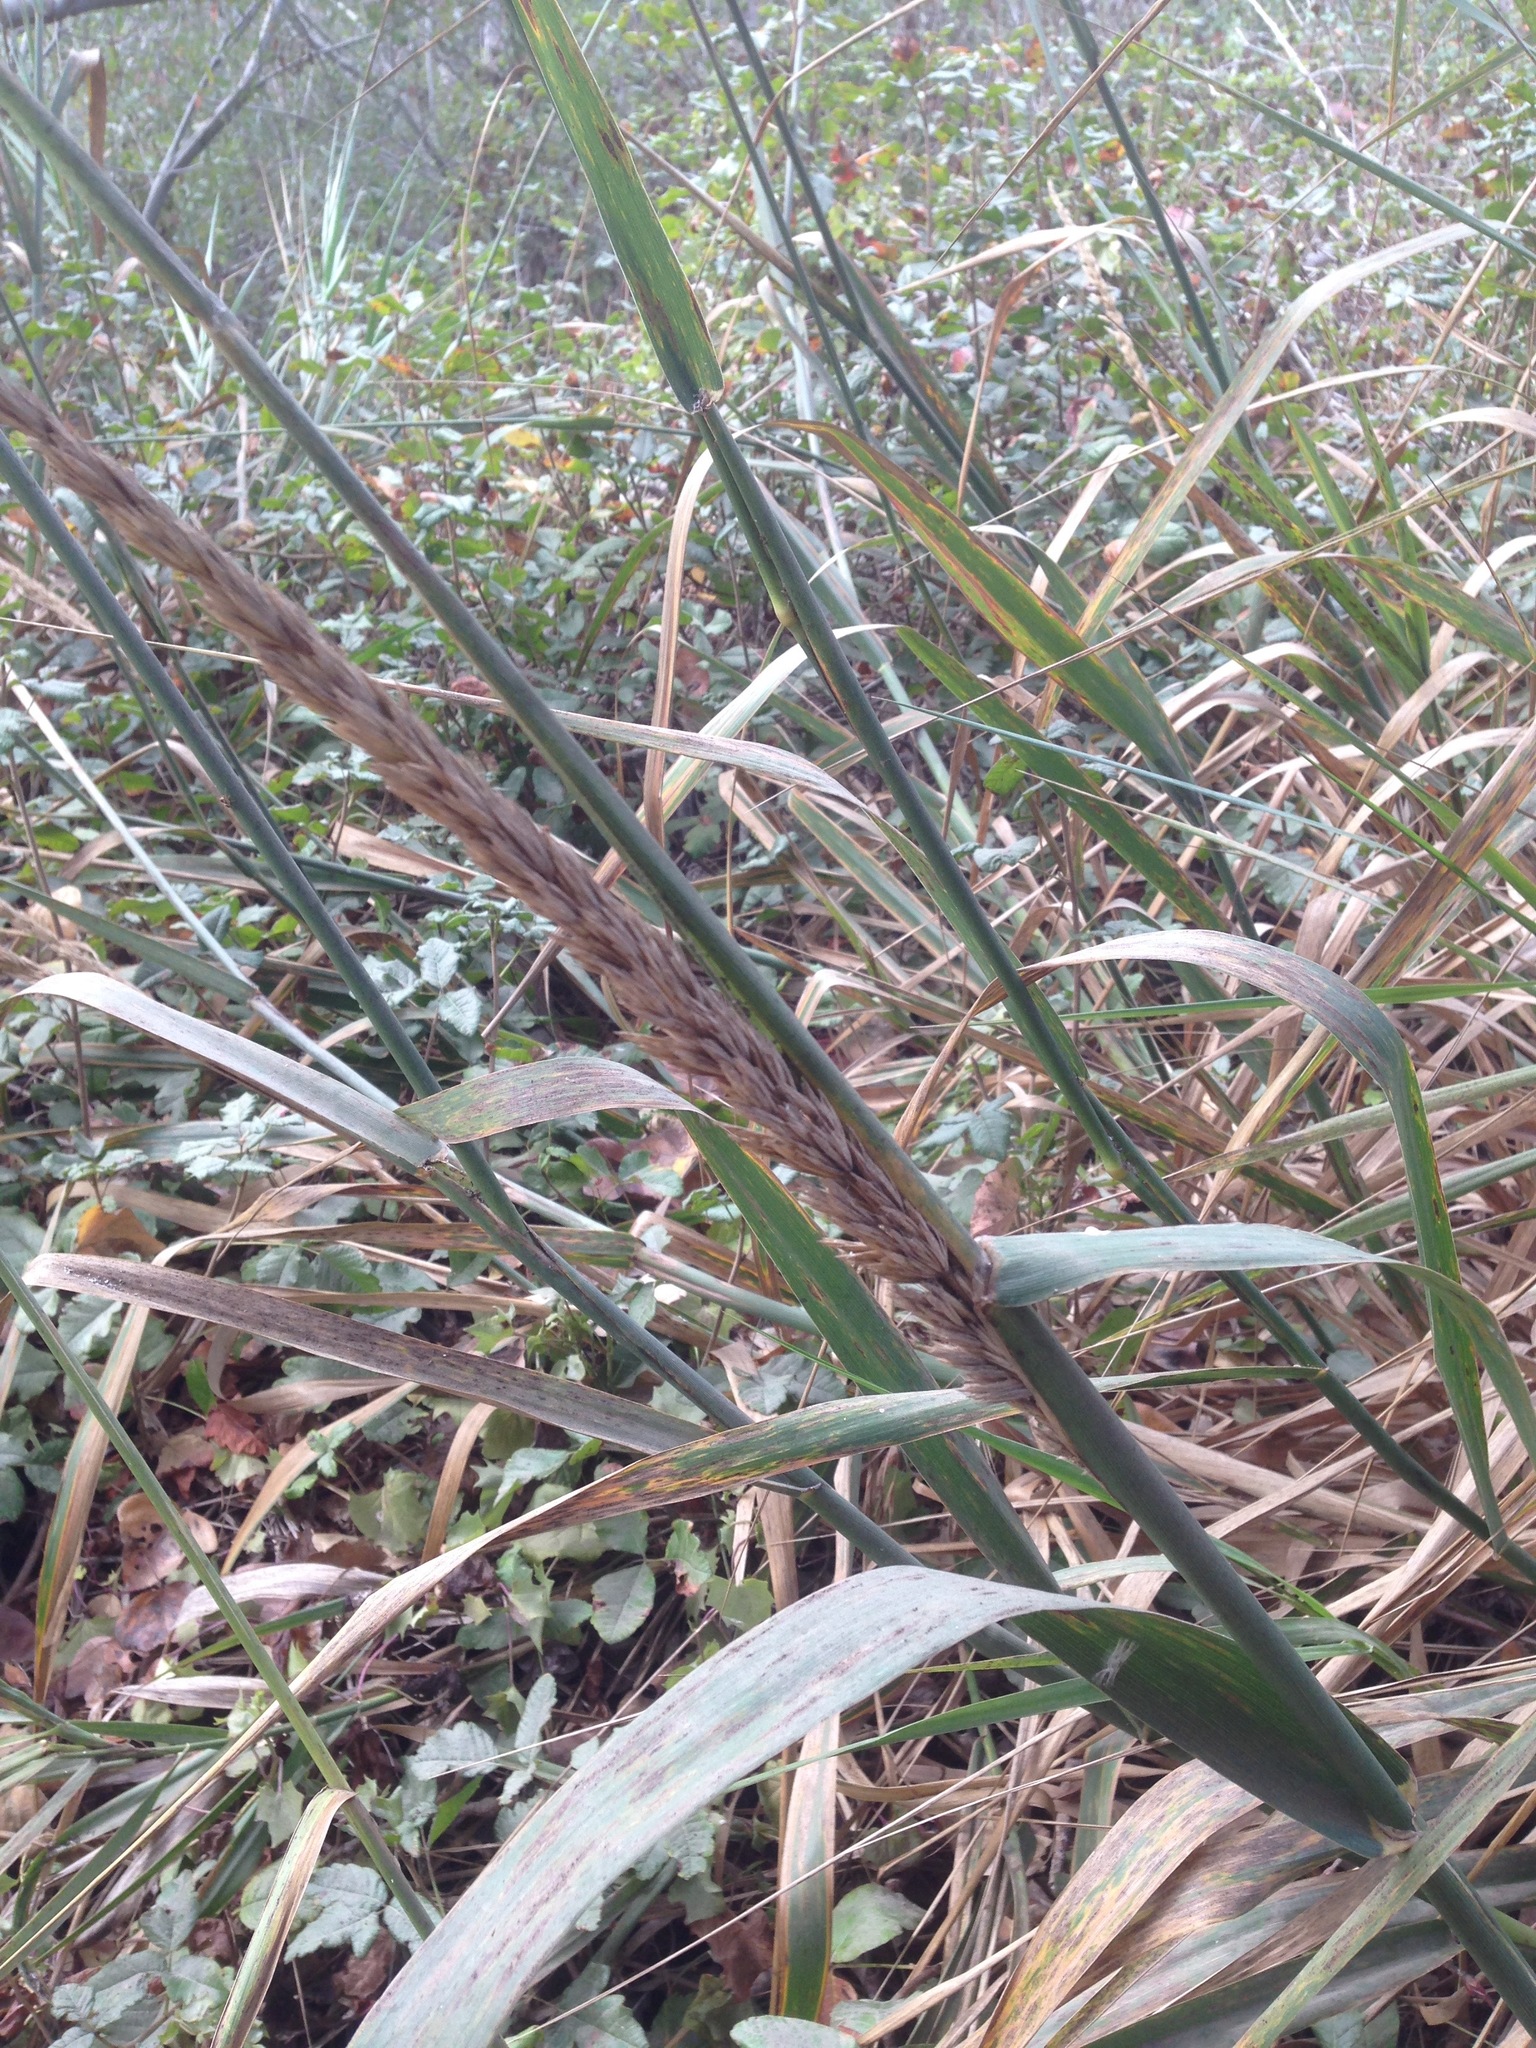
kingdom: Plantae
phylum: Tracheophyta
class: Liliopsida
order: Poales
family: Poaceae
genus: Leymus
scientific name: Leymus condensatus
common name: Giant wild rye
